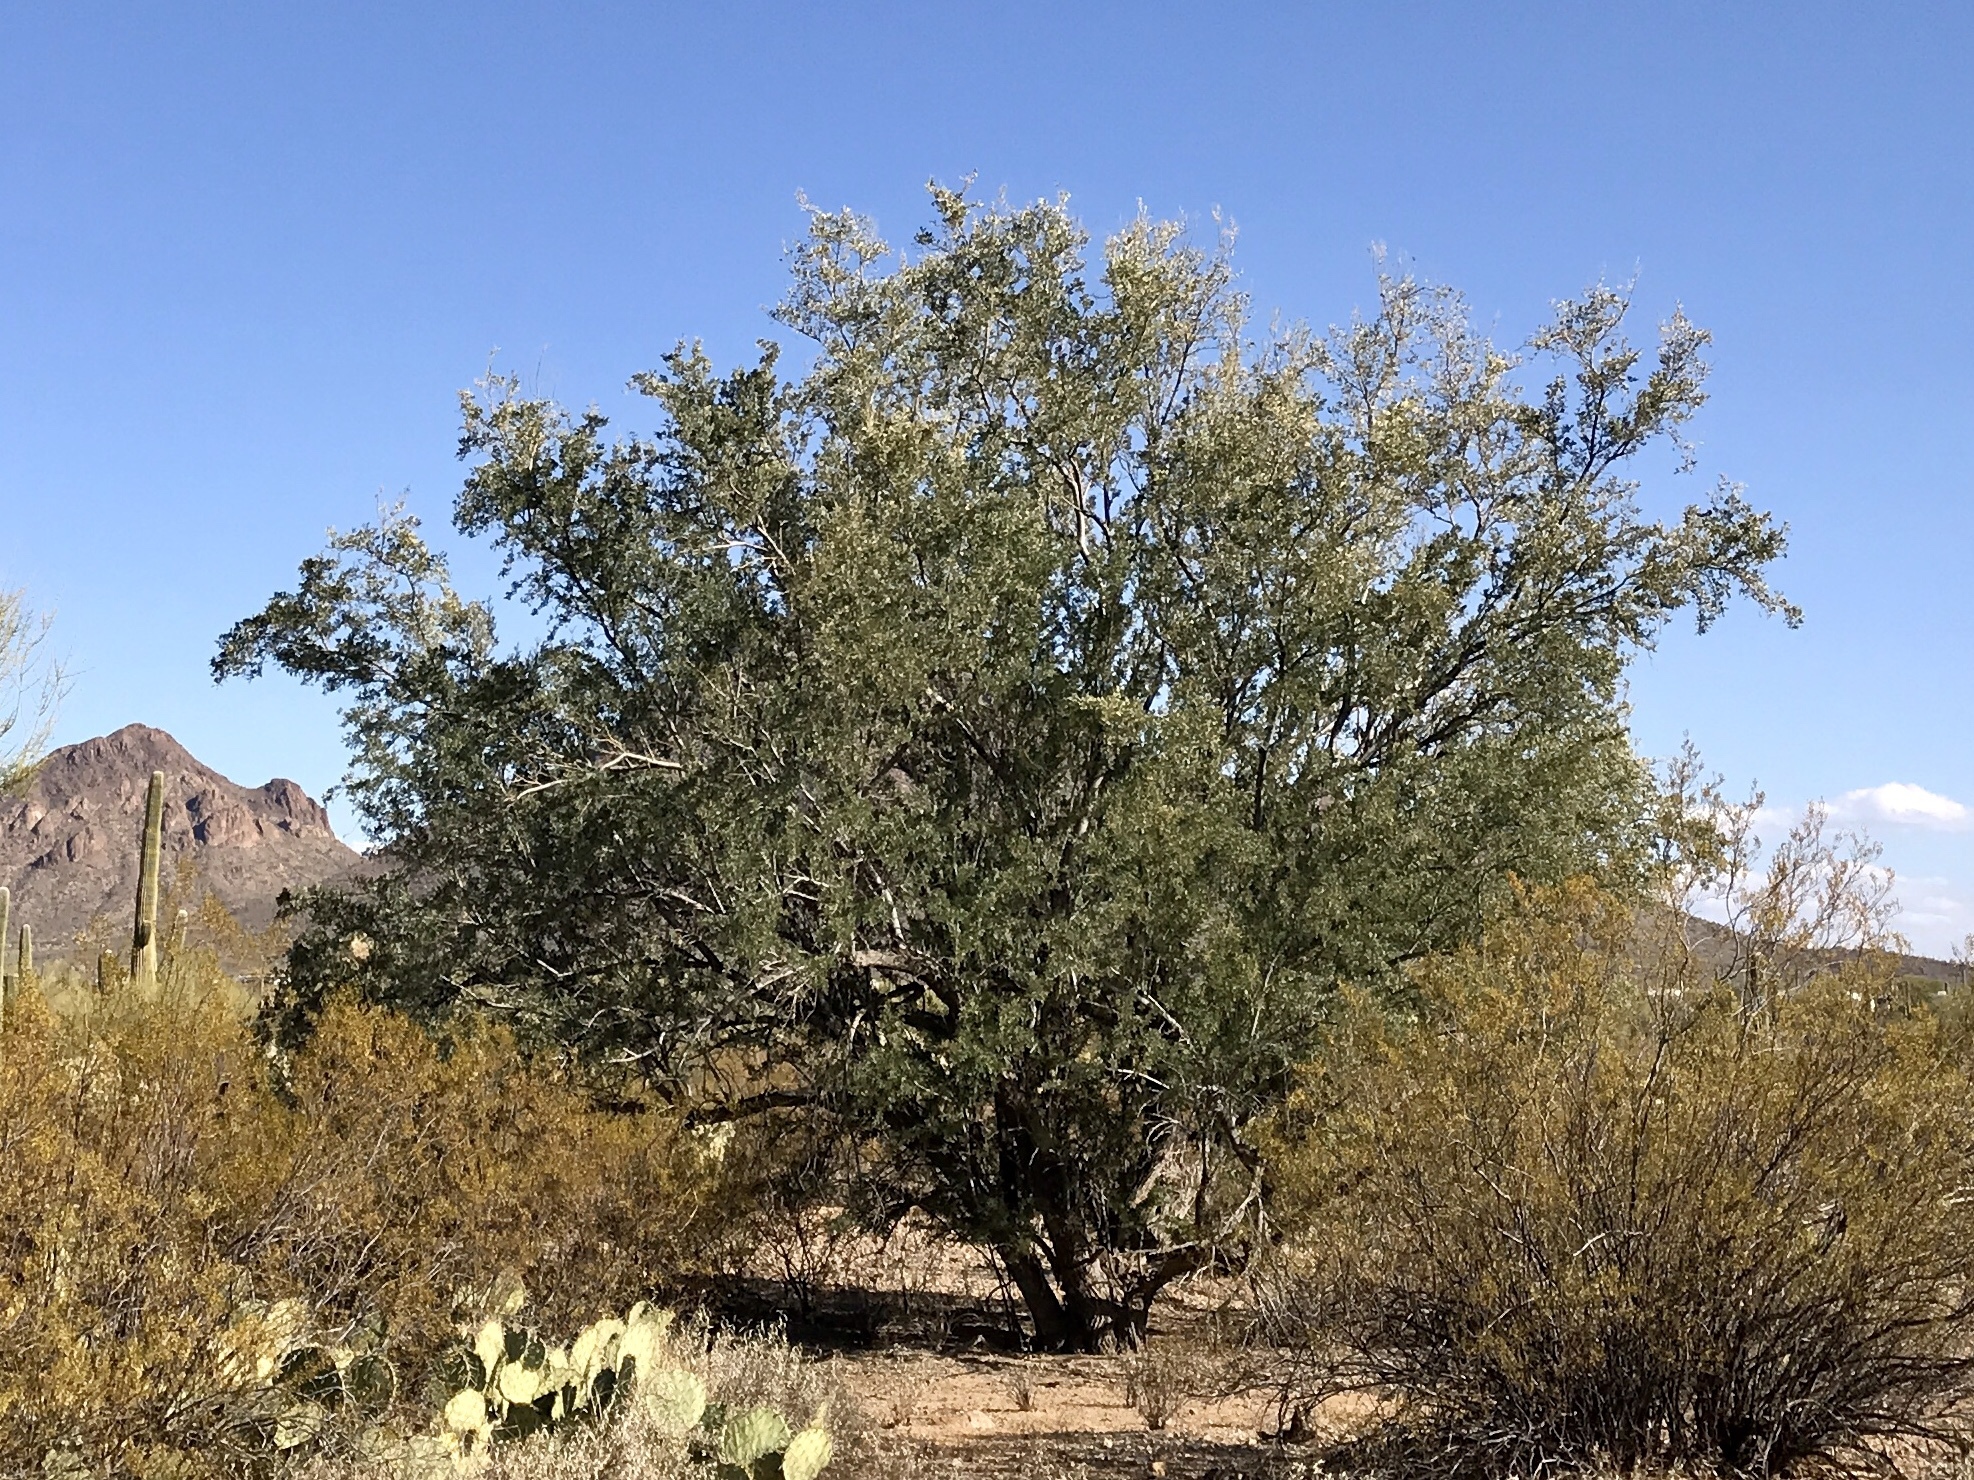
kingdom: Plantae
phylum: Tracheophyta
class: Magnoliopsida
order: Fabales
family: Fabaceae
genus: Olneya
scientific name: Olneya tesota
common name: Desert ironwood
